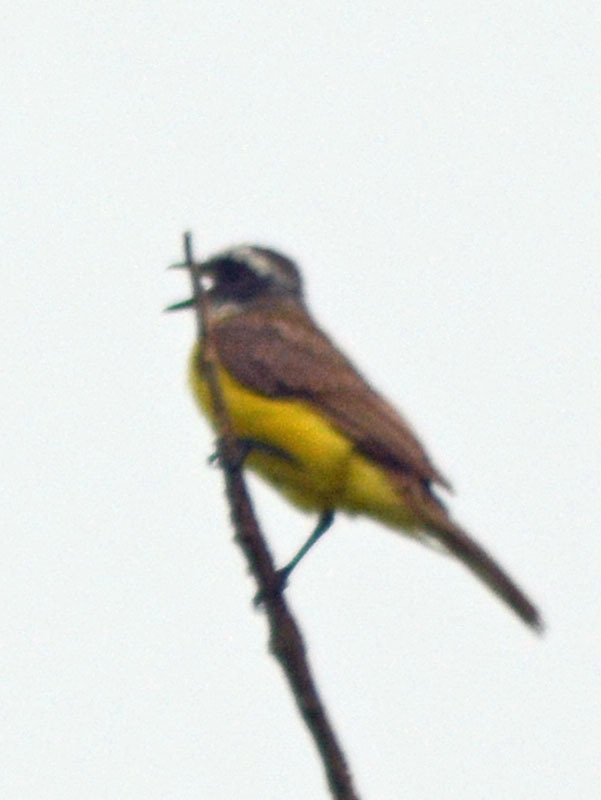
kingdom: Animalia
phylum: Chordata
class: Aves
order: Passeriformes
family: Tyrannidae
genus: Pitangus
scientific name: Pitangus sulphuratus
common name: Great kiskadee
